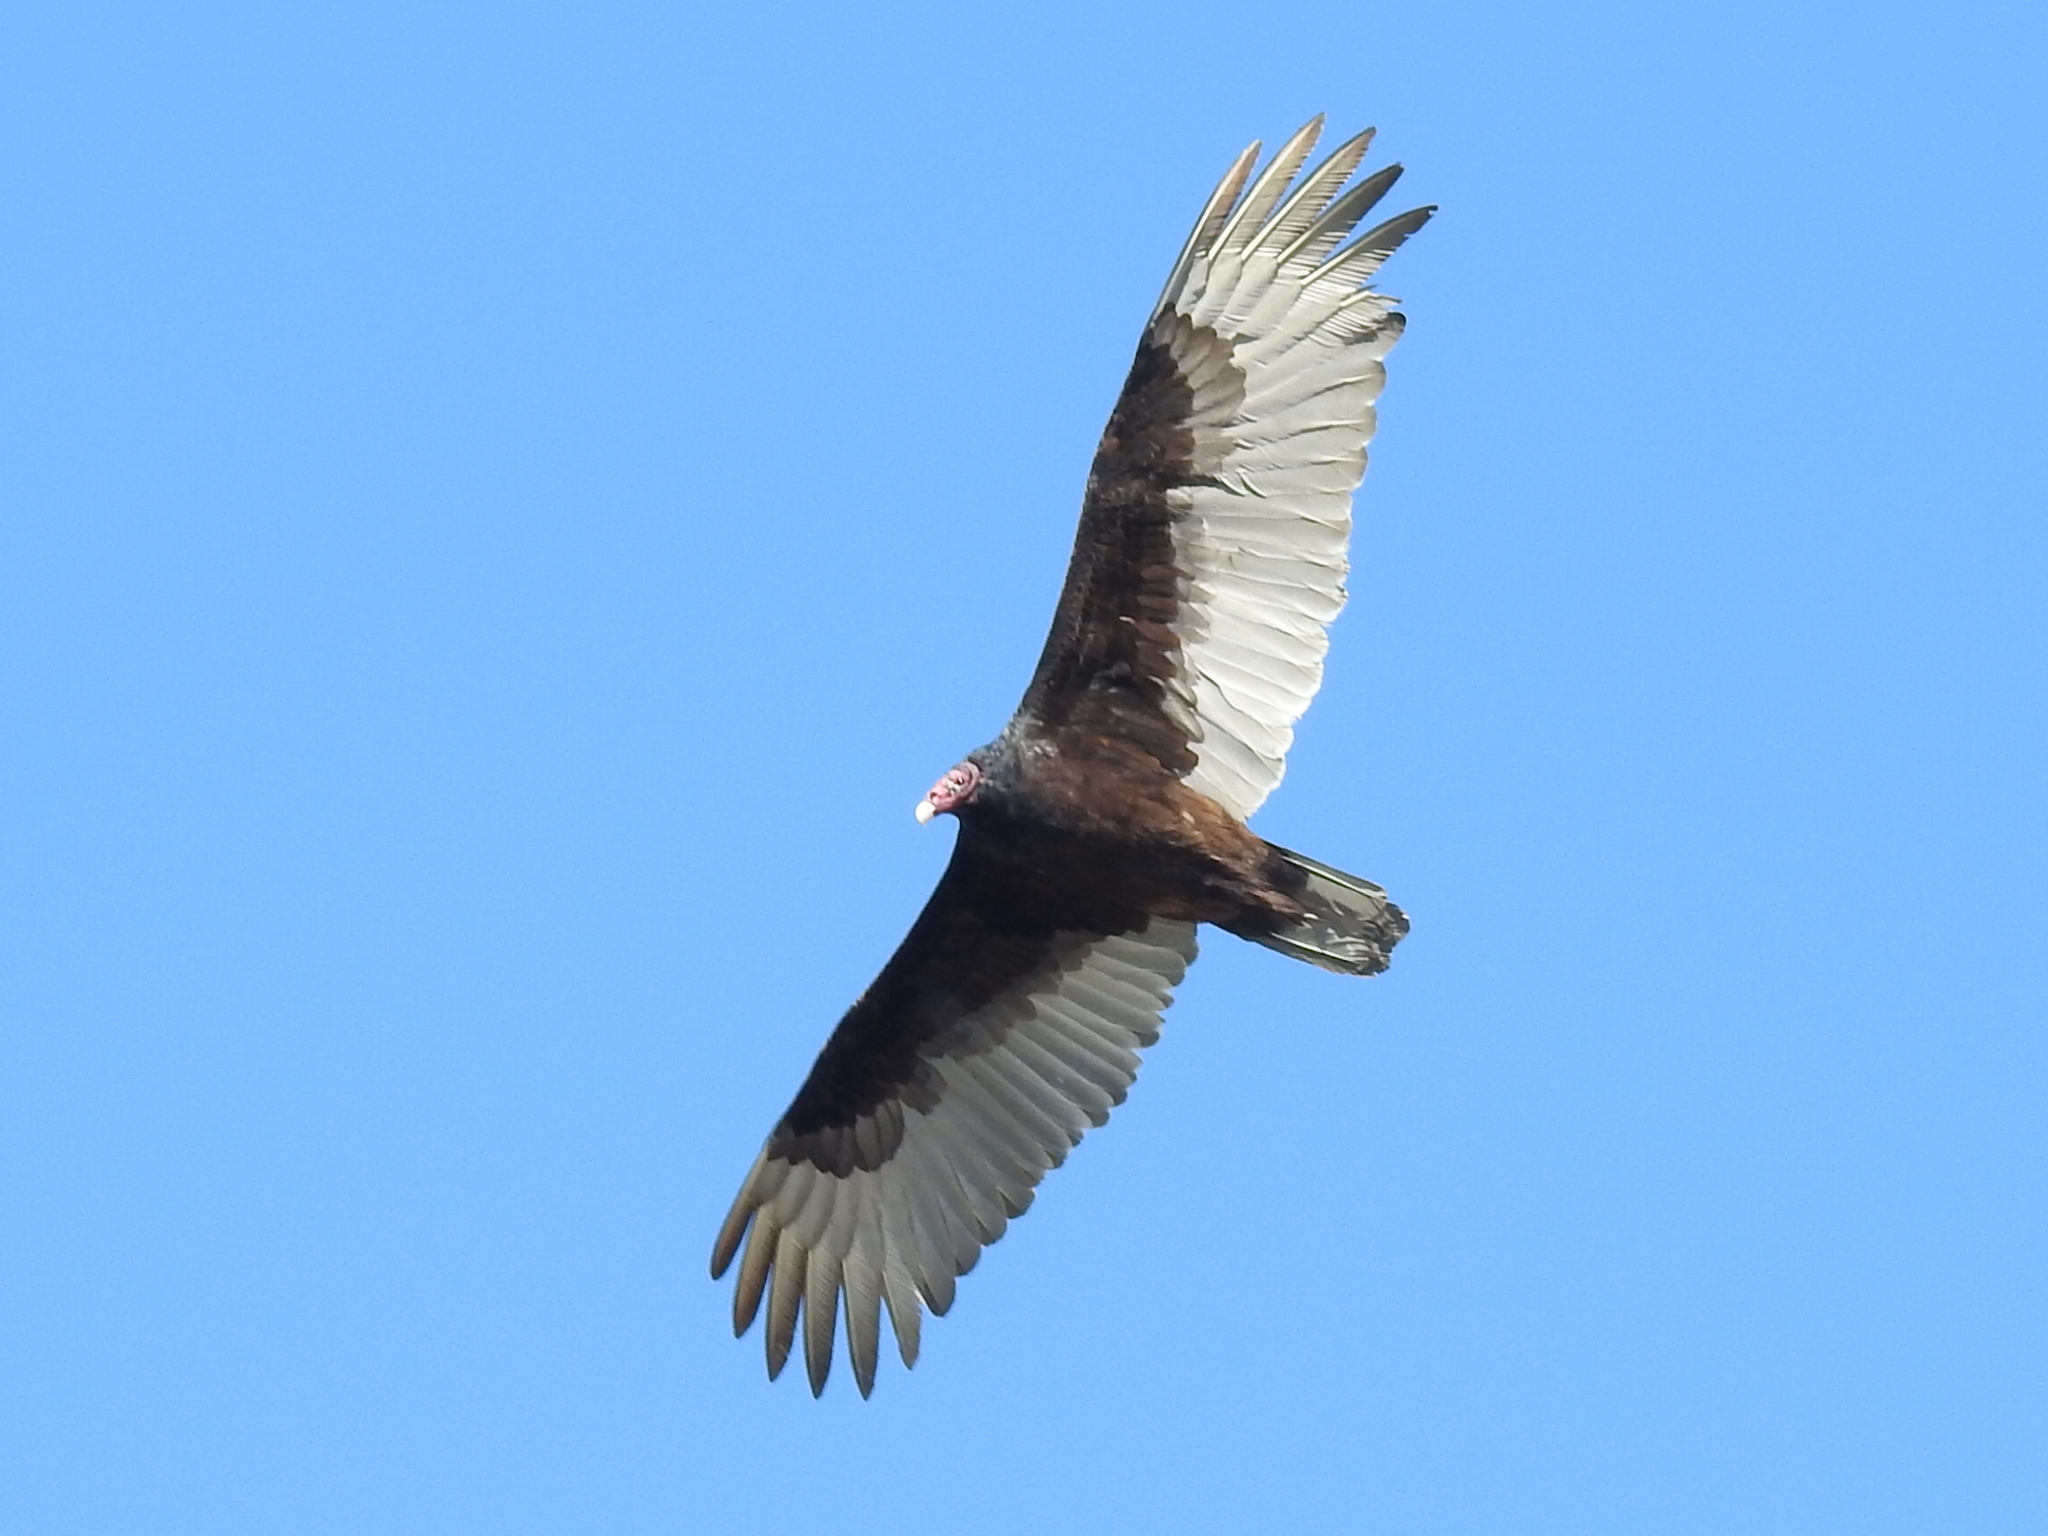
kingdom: Animalia
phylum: Chordata
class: Aves
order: Accipitriformes
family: Cathartidae
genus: Cathartes
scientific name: Cathartes aura
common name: Turkey vulture
